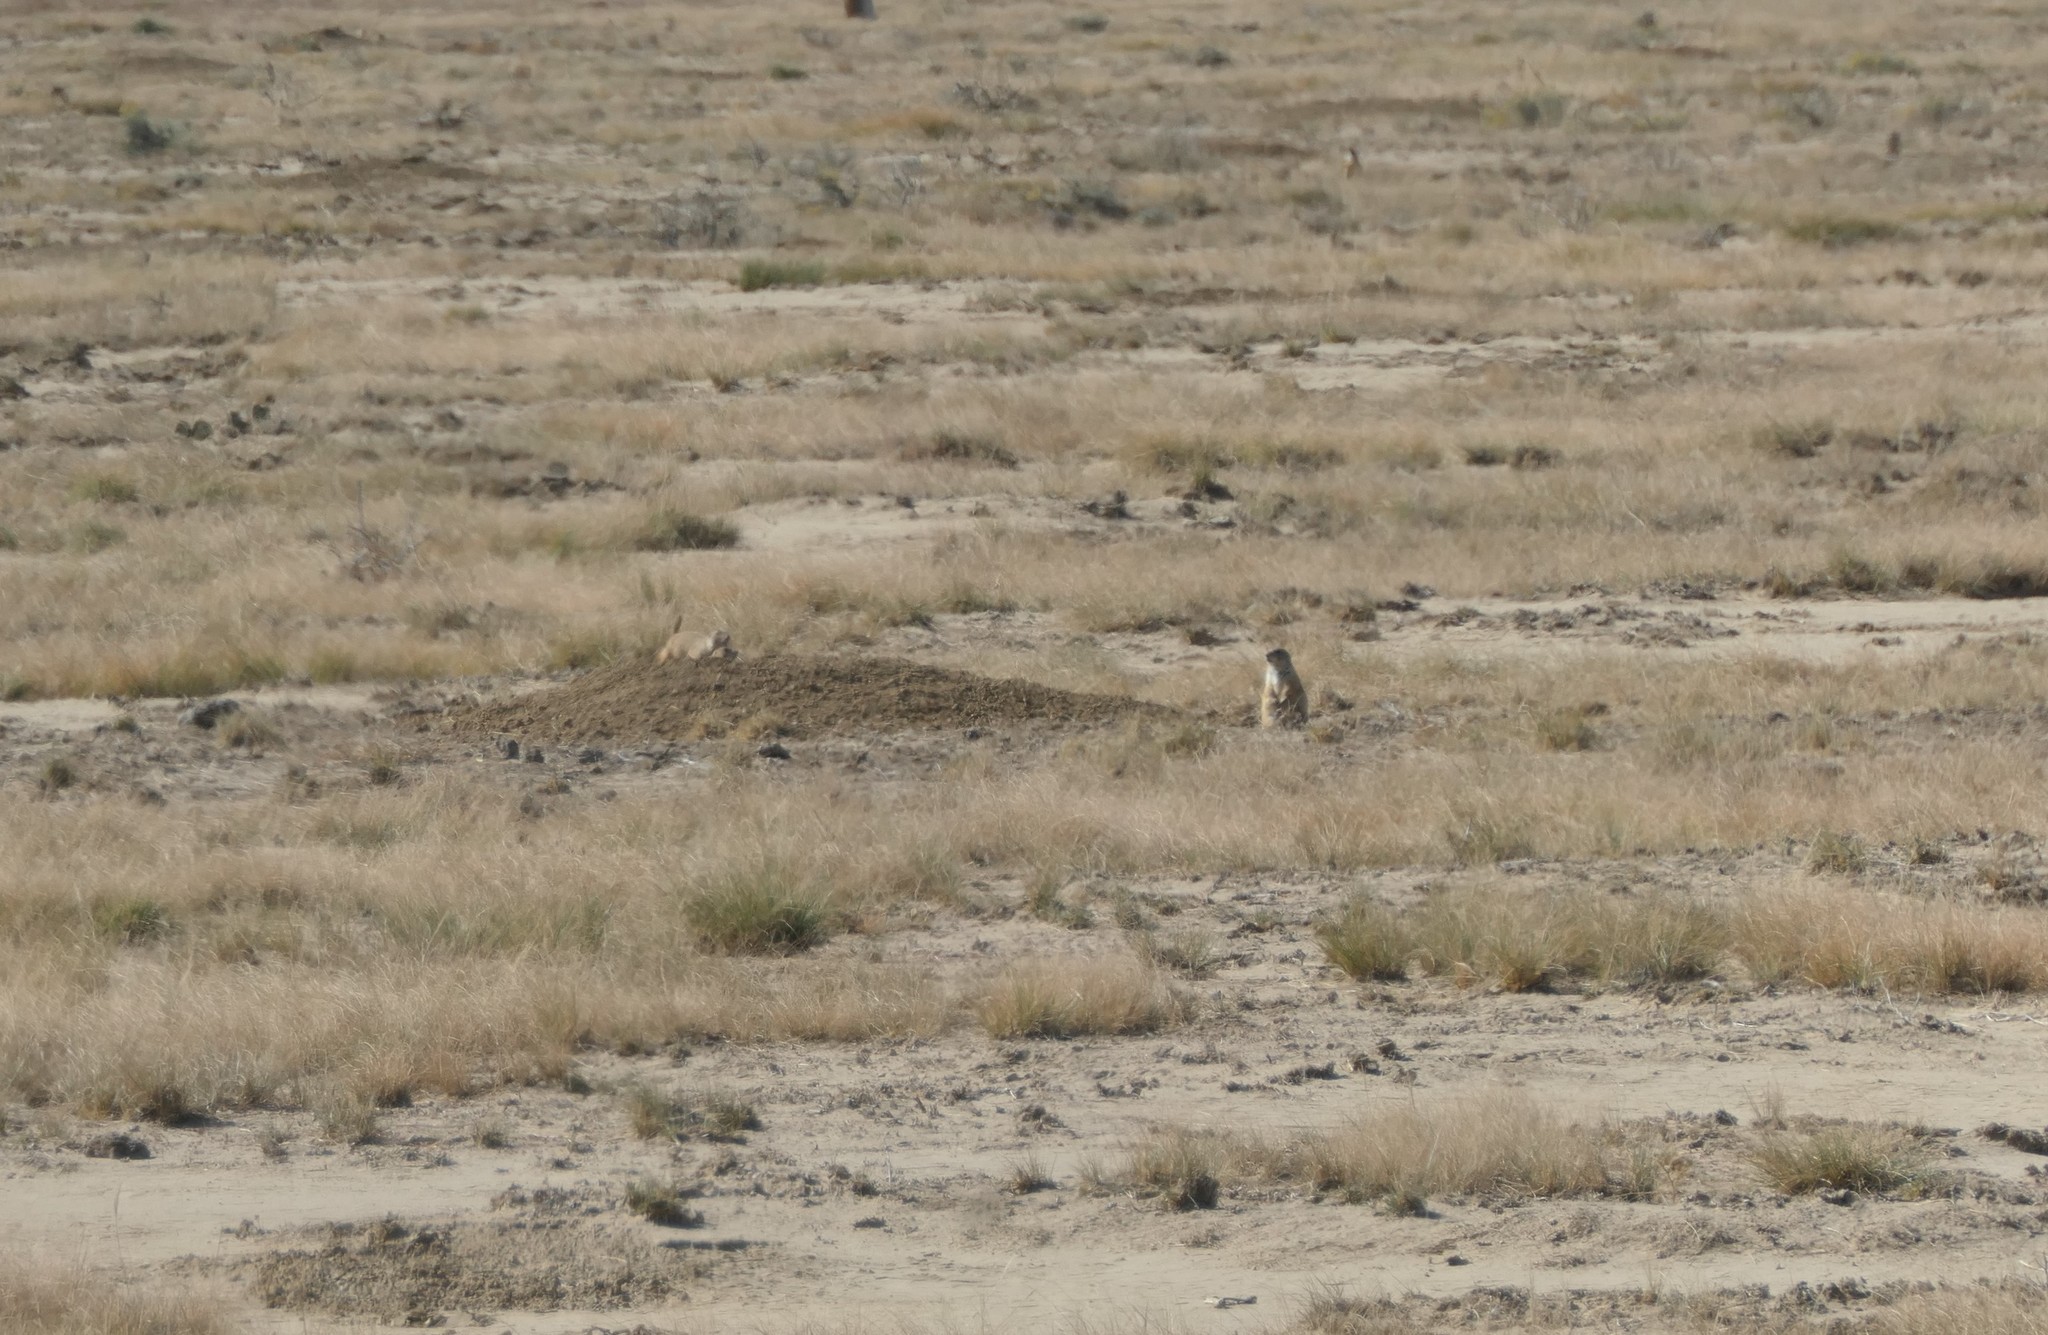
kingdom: Animalia
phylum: Chordata
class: Mammalia
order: Rodentia
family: Sciuridae
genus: Cynomys
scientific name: Cynomys ludovicianus
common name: Black-tailed prairie dog
